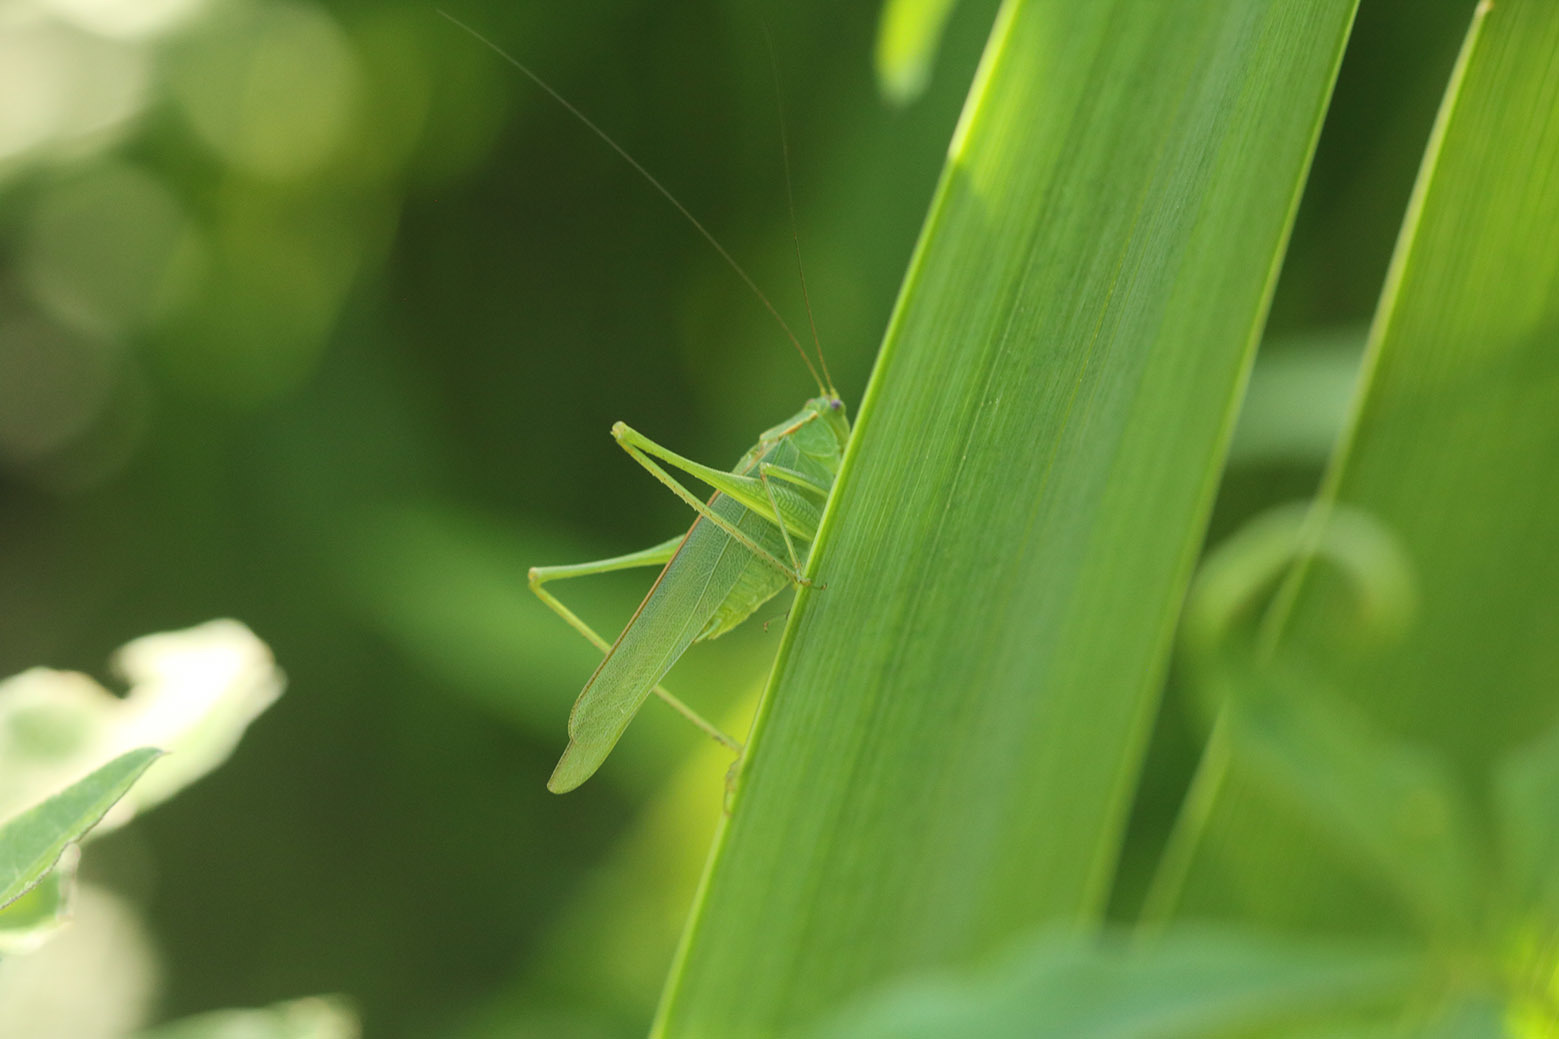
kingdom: Animalia
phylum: Arthropoda
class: Insecta
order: Orthoptera
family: Tettigoniidae
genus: Ligocatinus
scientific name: Ligocatinus spinatus
